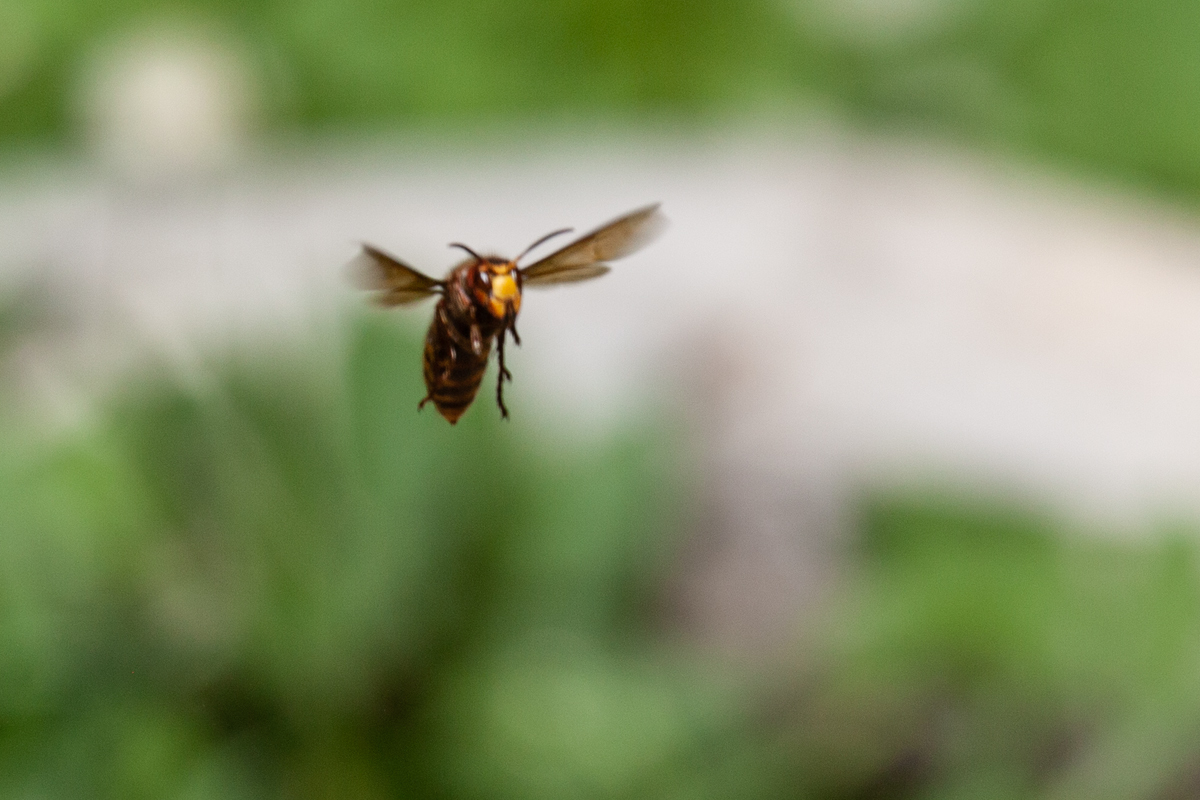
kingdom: Animalia
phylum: Arthropoda
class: Insecta
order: Hymenoptera
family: Vespidae
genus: Vespa
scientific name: Vespa crabro
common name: Hornet
